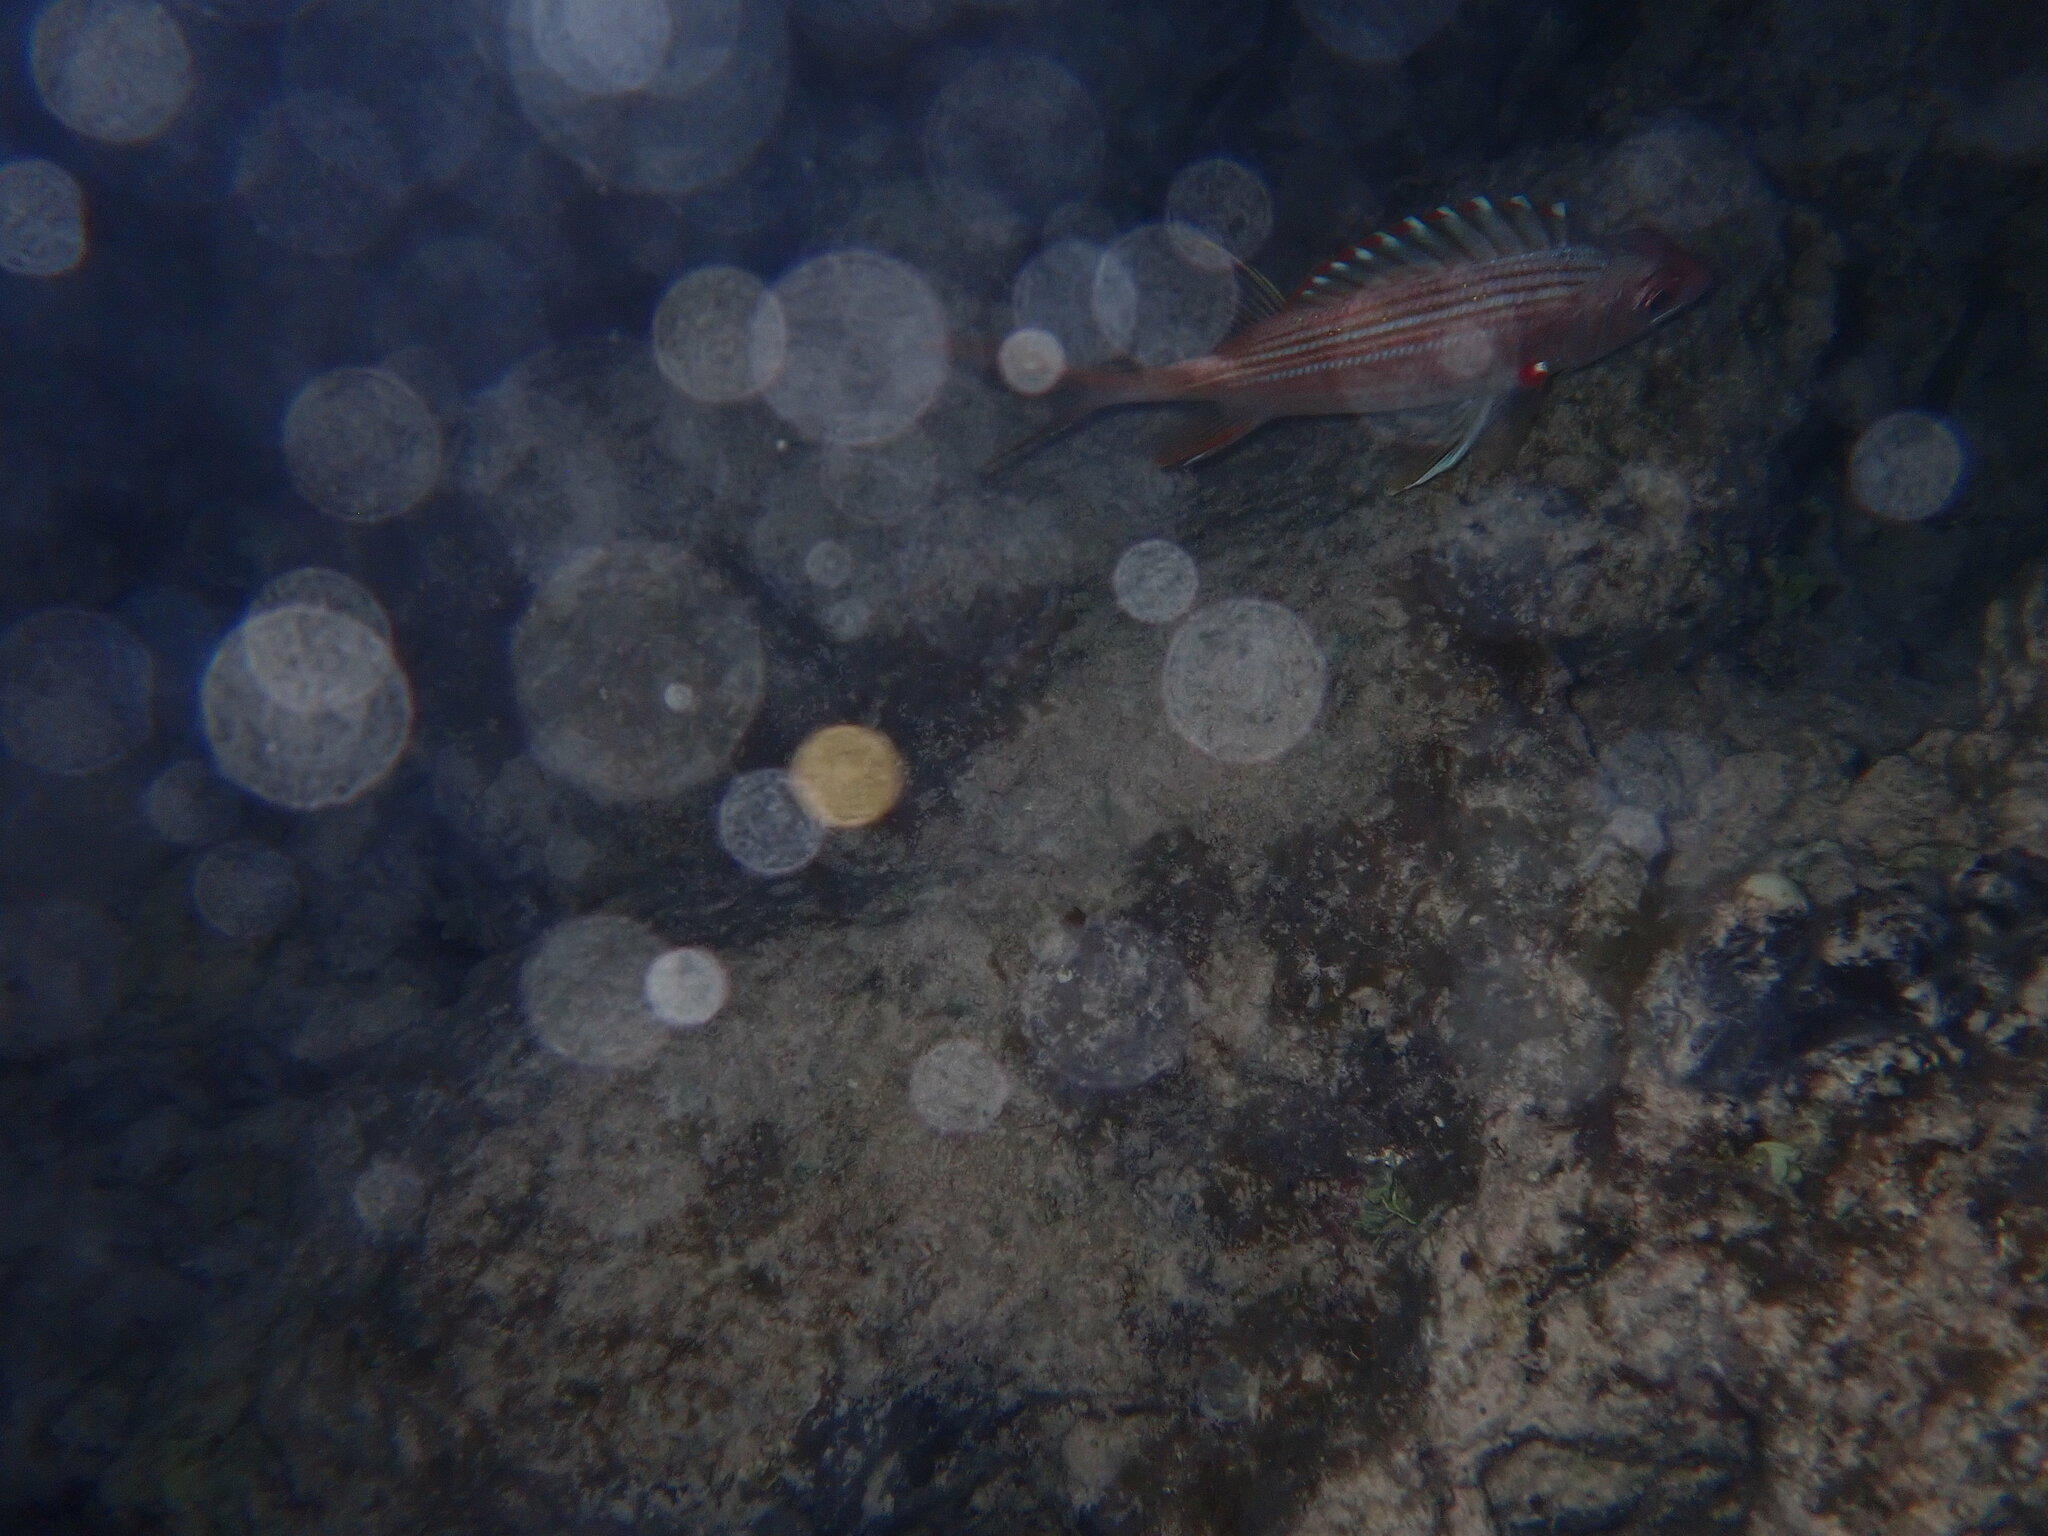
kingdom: Animalia
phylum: Chordata
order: Beryciformes
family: Holocentridae
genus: Holocentrus
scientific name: Holocentrus rufus
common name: Longspine squirrelfish
